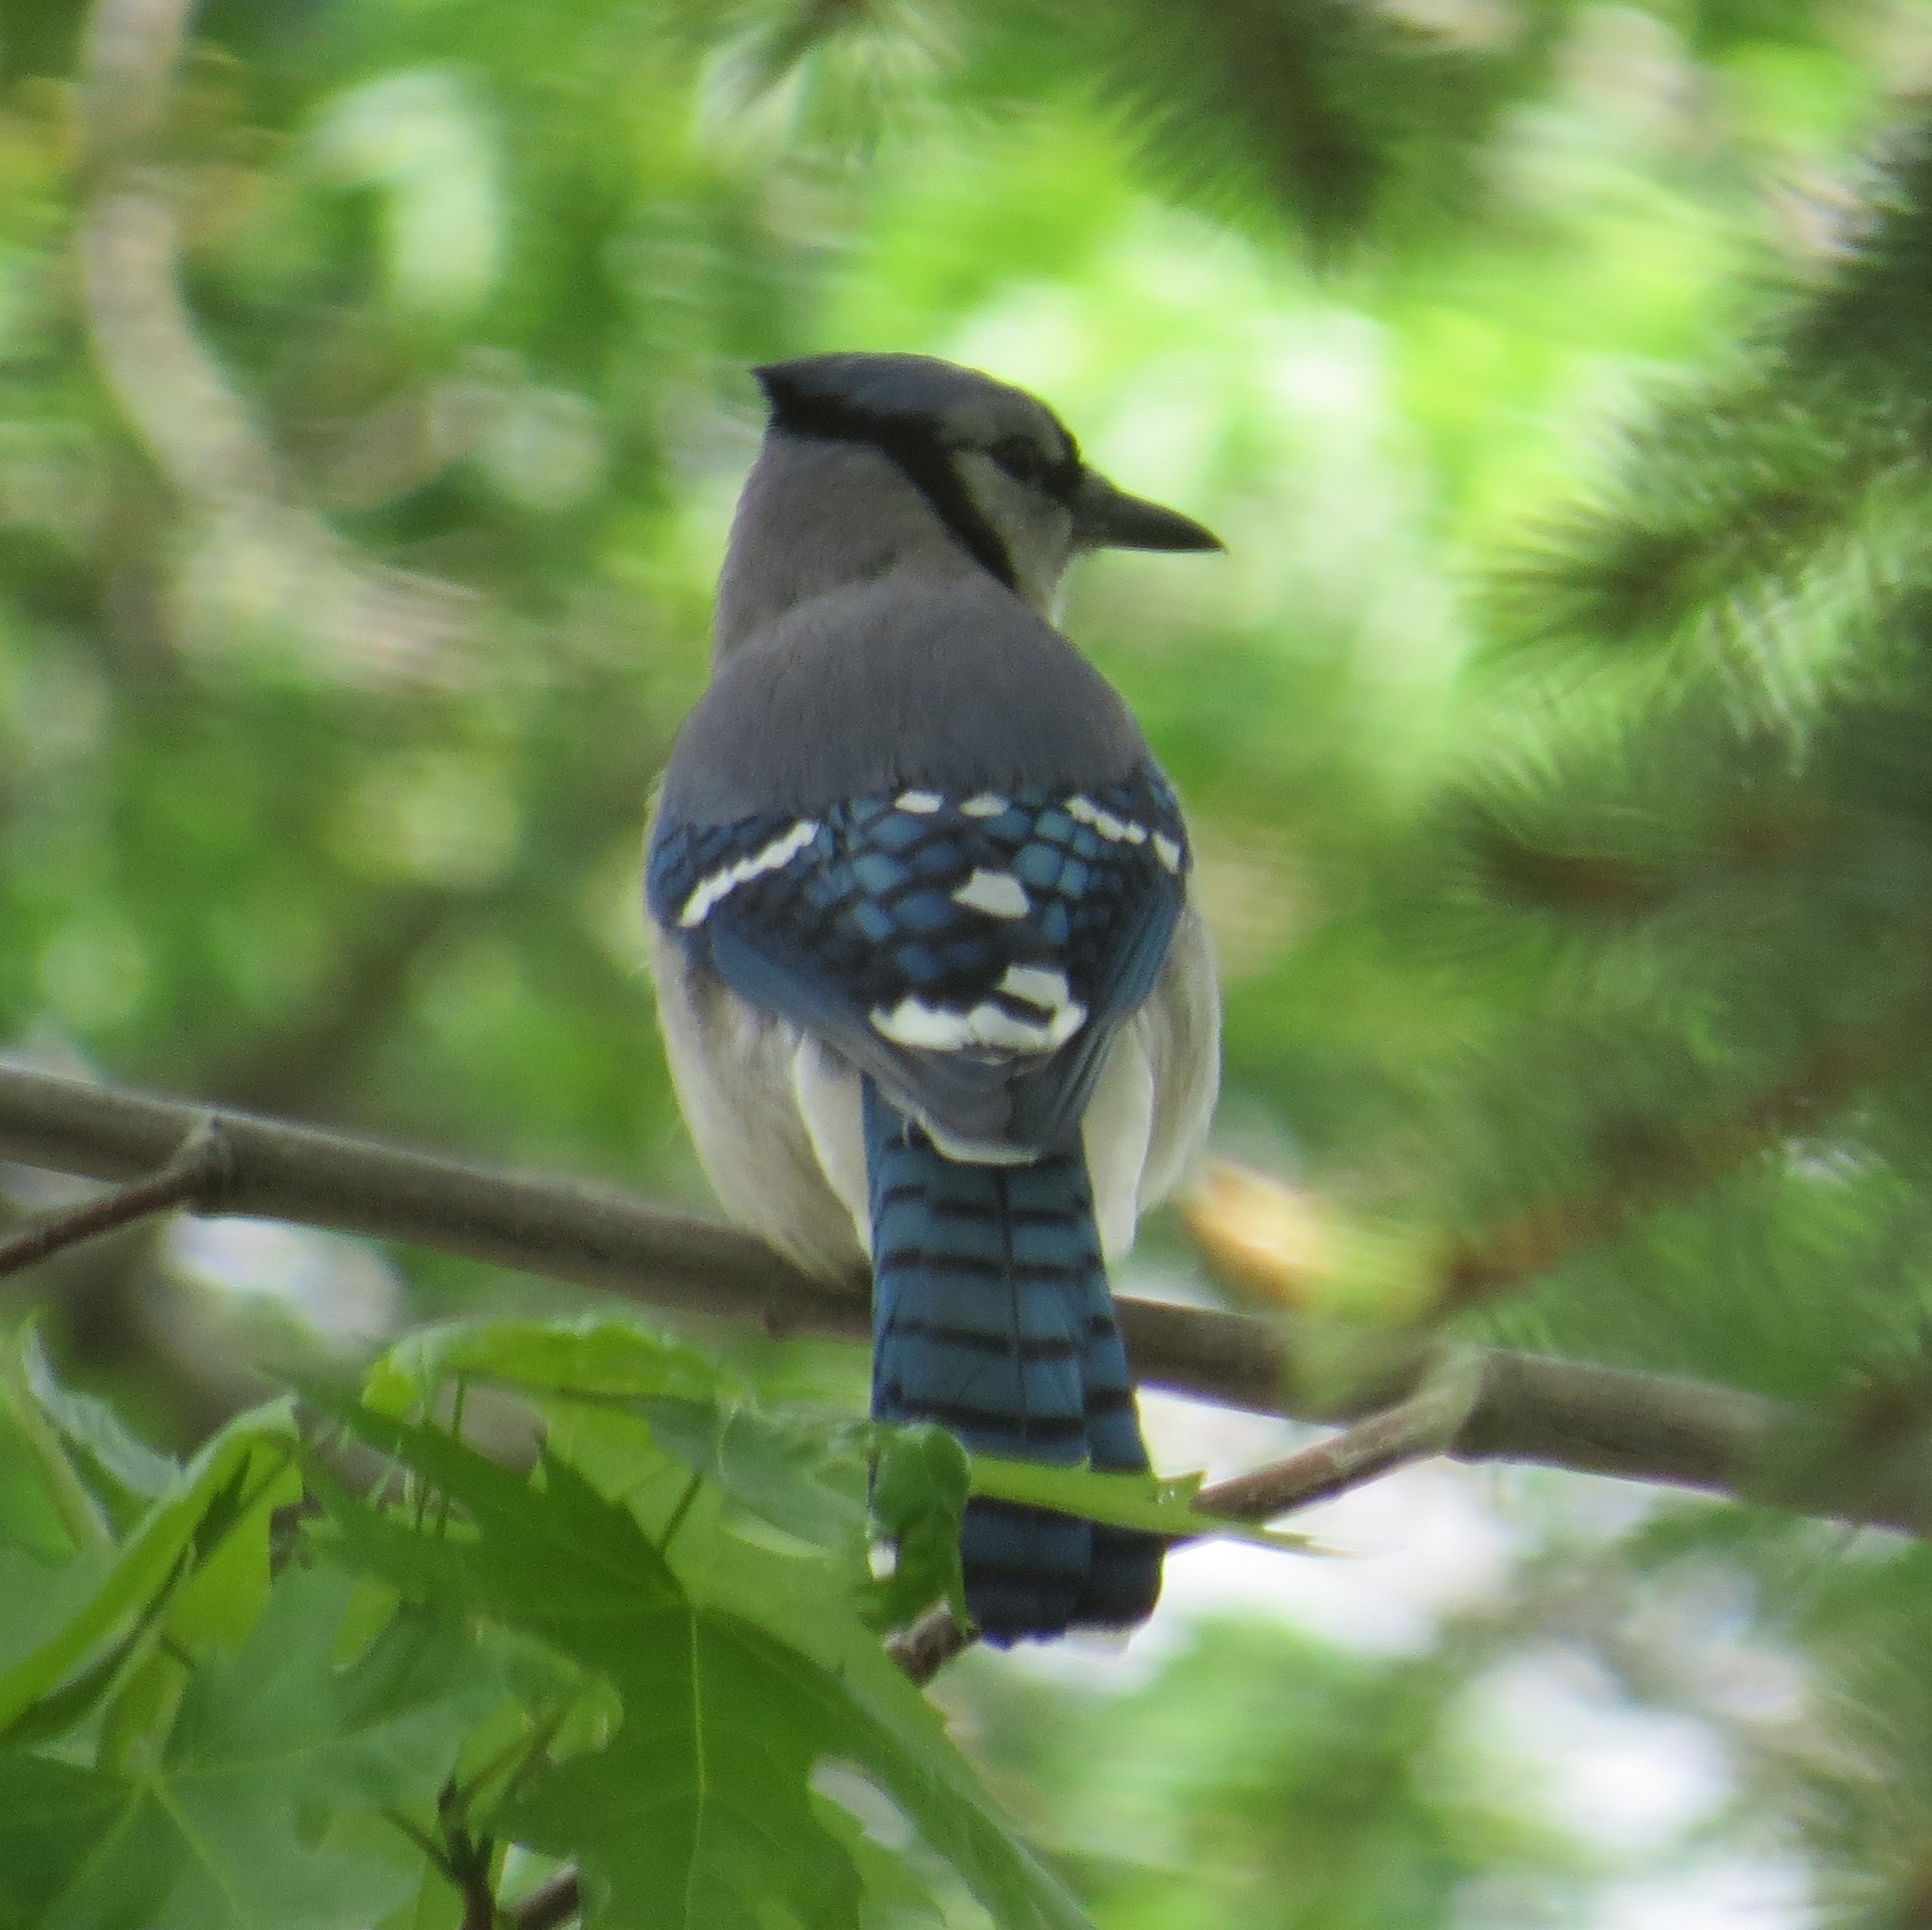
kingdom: Animalia
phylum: Chordata
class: Aves
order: Passeriformes
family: Corvidae
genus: Cyanocitta
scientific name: Cyanocitta cristata
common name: Blue jay
